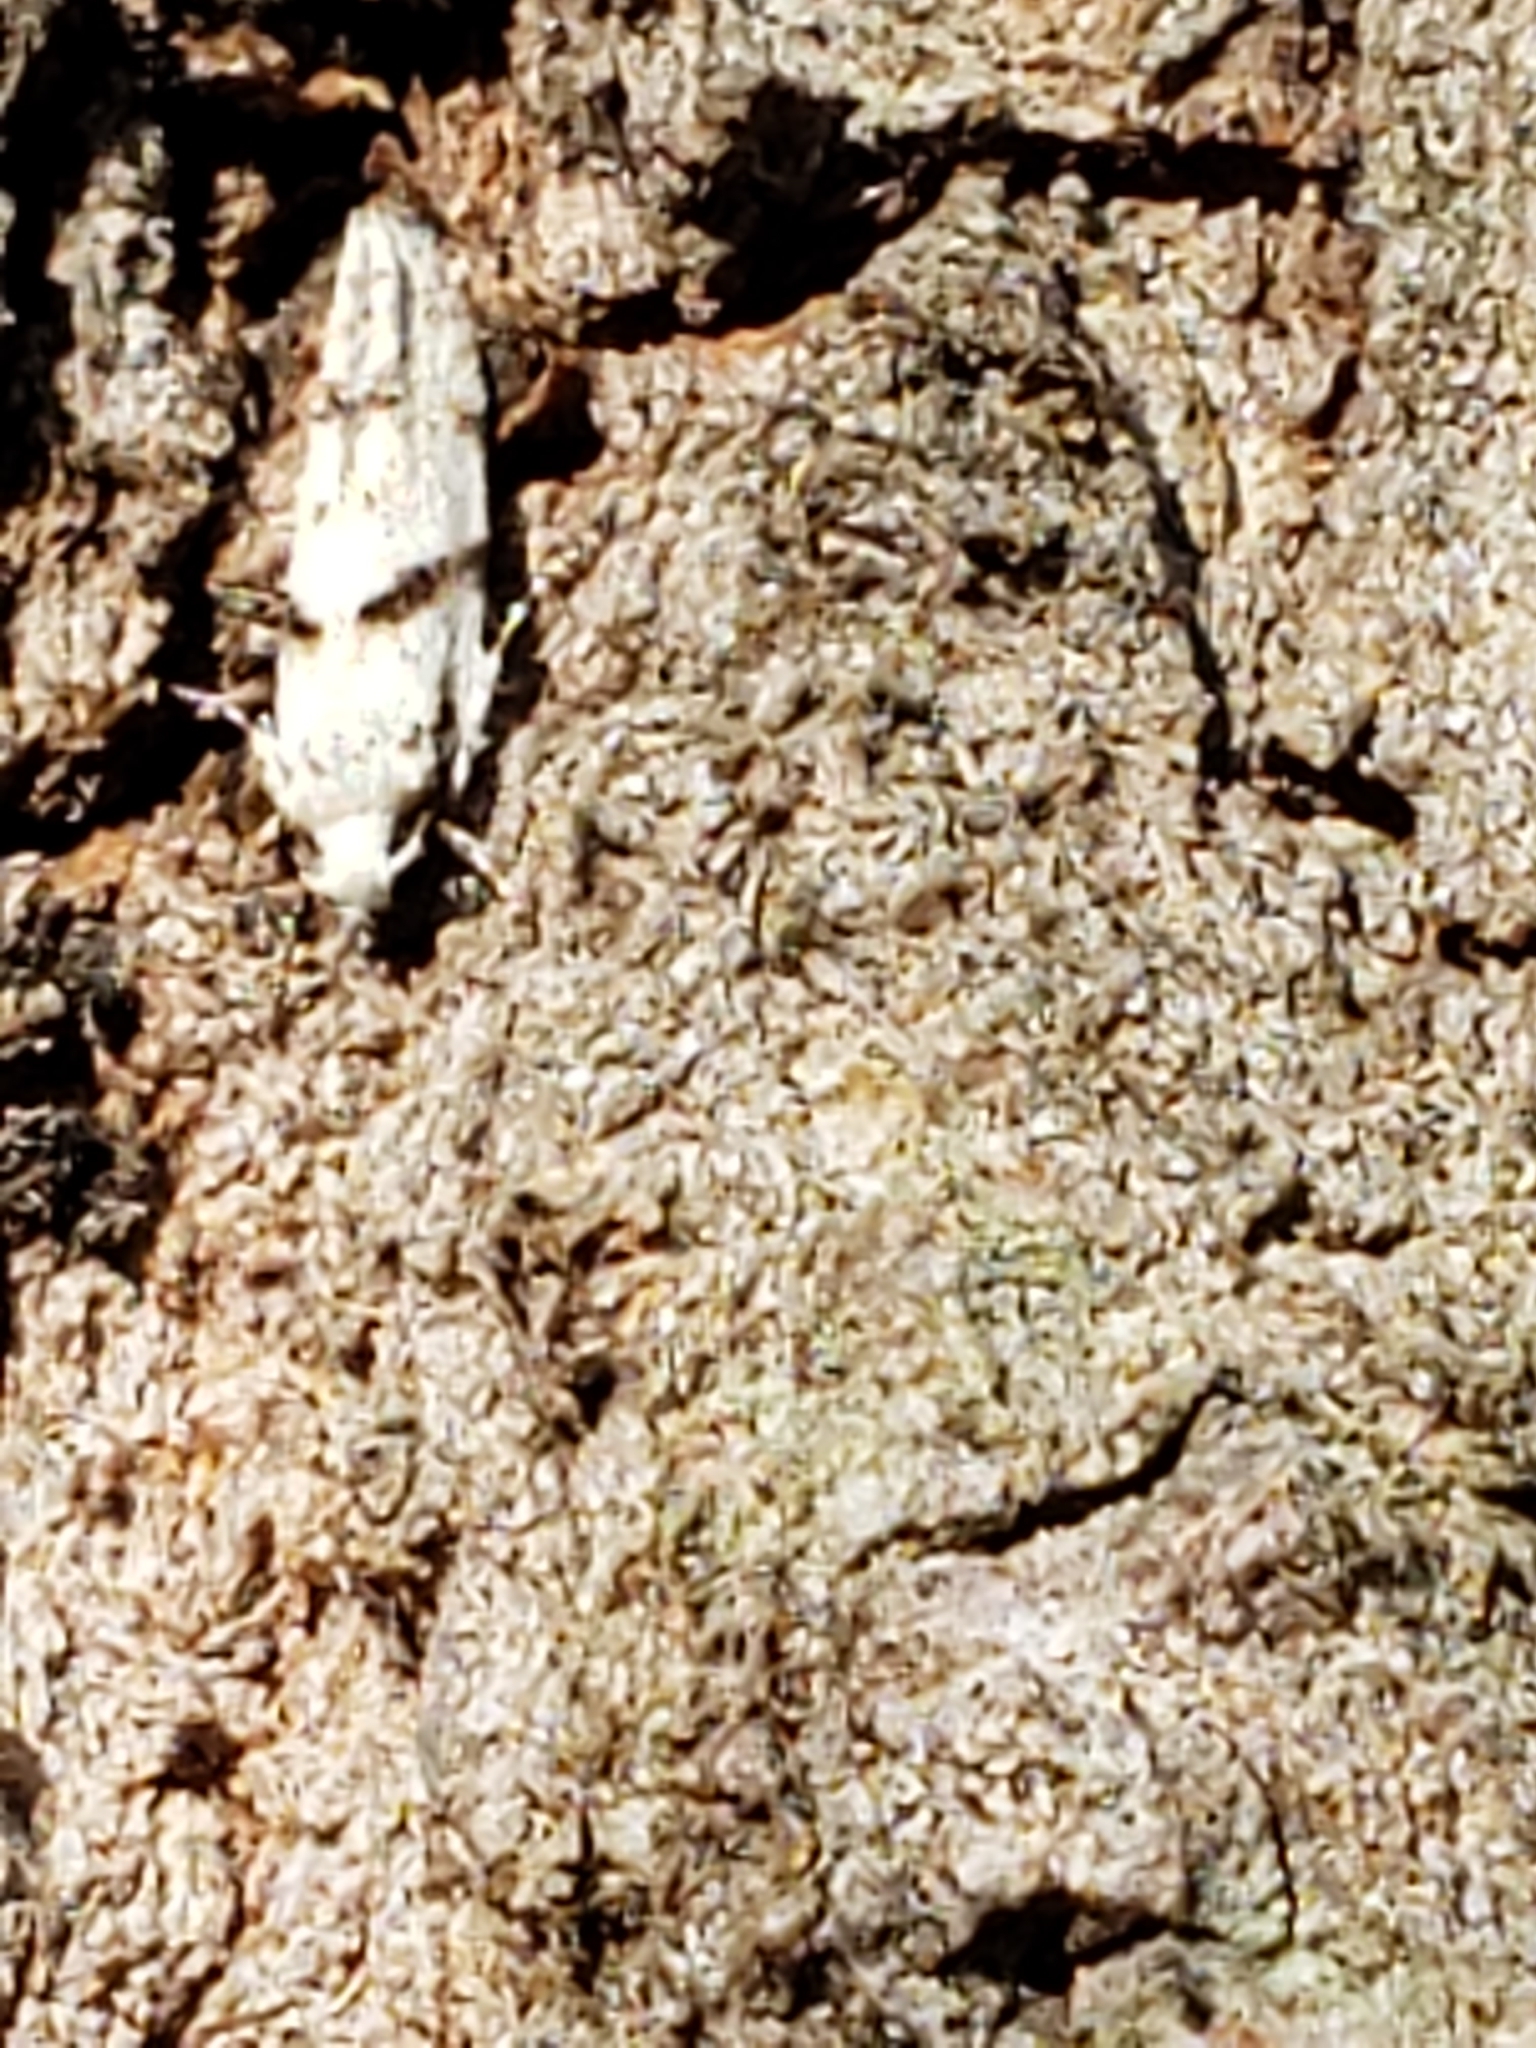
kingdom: Animalia
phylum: Arthropoda
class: Insecta
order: Lepidoptera
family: Gelechiidae
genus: Arogalea
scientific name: Arogalea cristifasciella
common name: White stripe-backed moth
